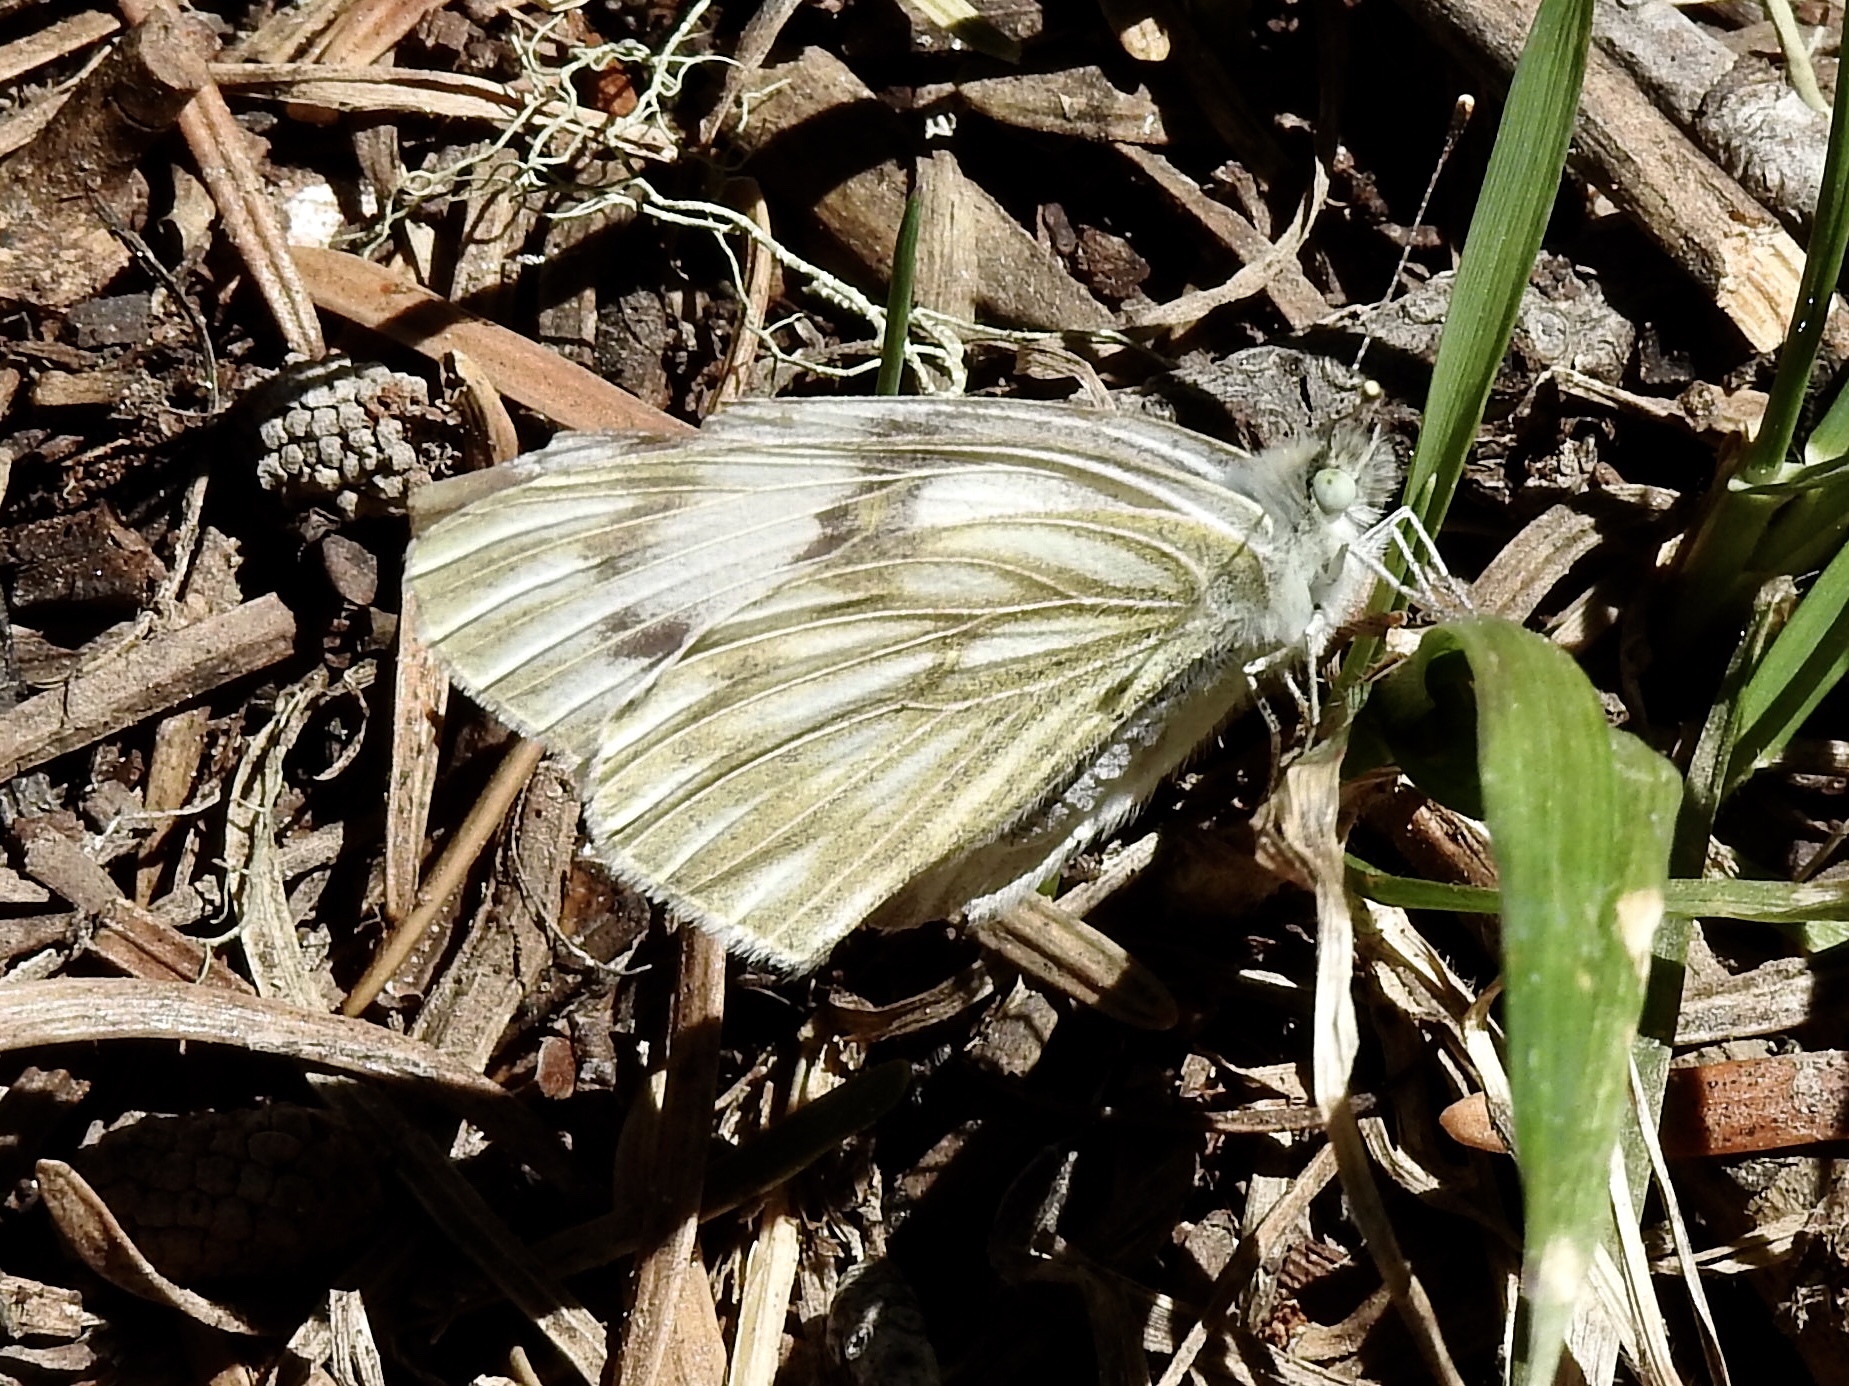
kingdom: Animalia
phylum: Arthropoda
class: Insecta
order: Lepidoptera
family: Pieridae
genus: Pontia
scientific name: Pontia protodice
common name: Checkered white
